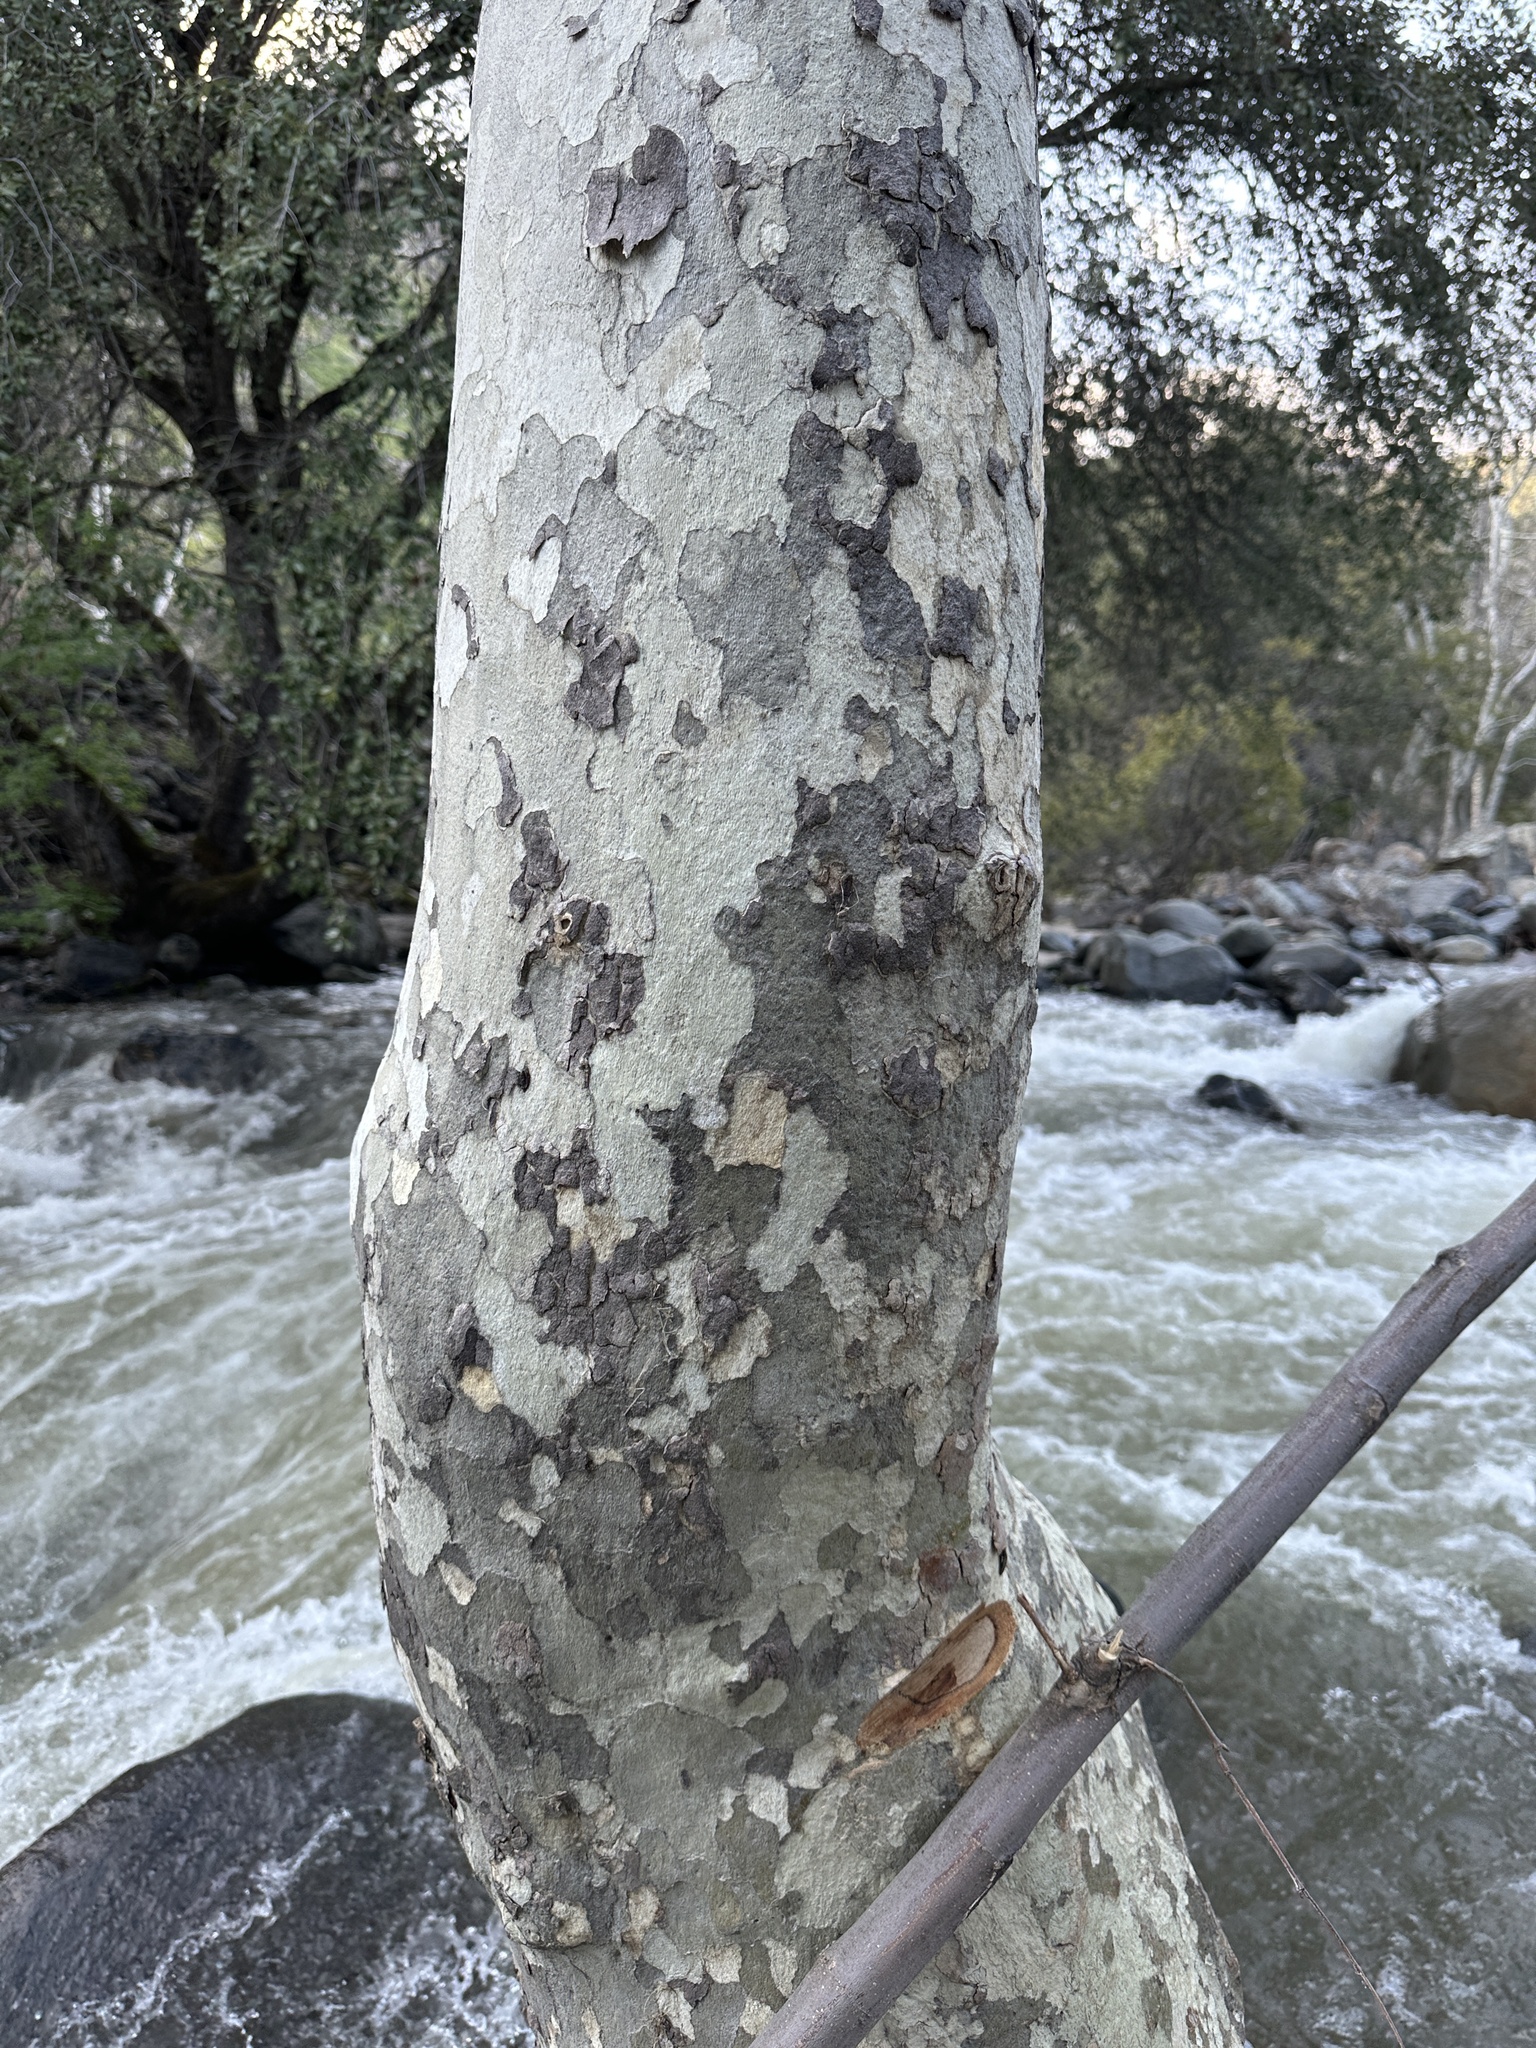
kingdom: Plantae
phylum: Tracheophyta
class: Magnoliopsida
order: Proteales
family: Platanaceae
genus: Platanus
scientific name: Platanus racemosa
